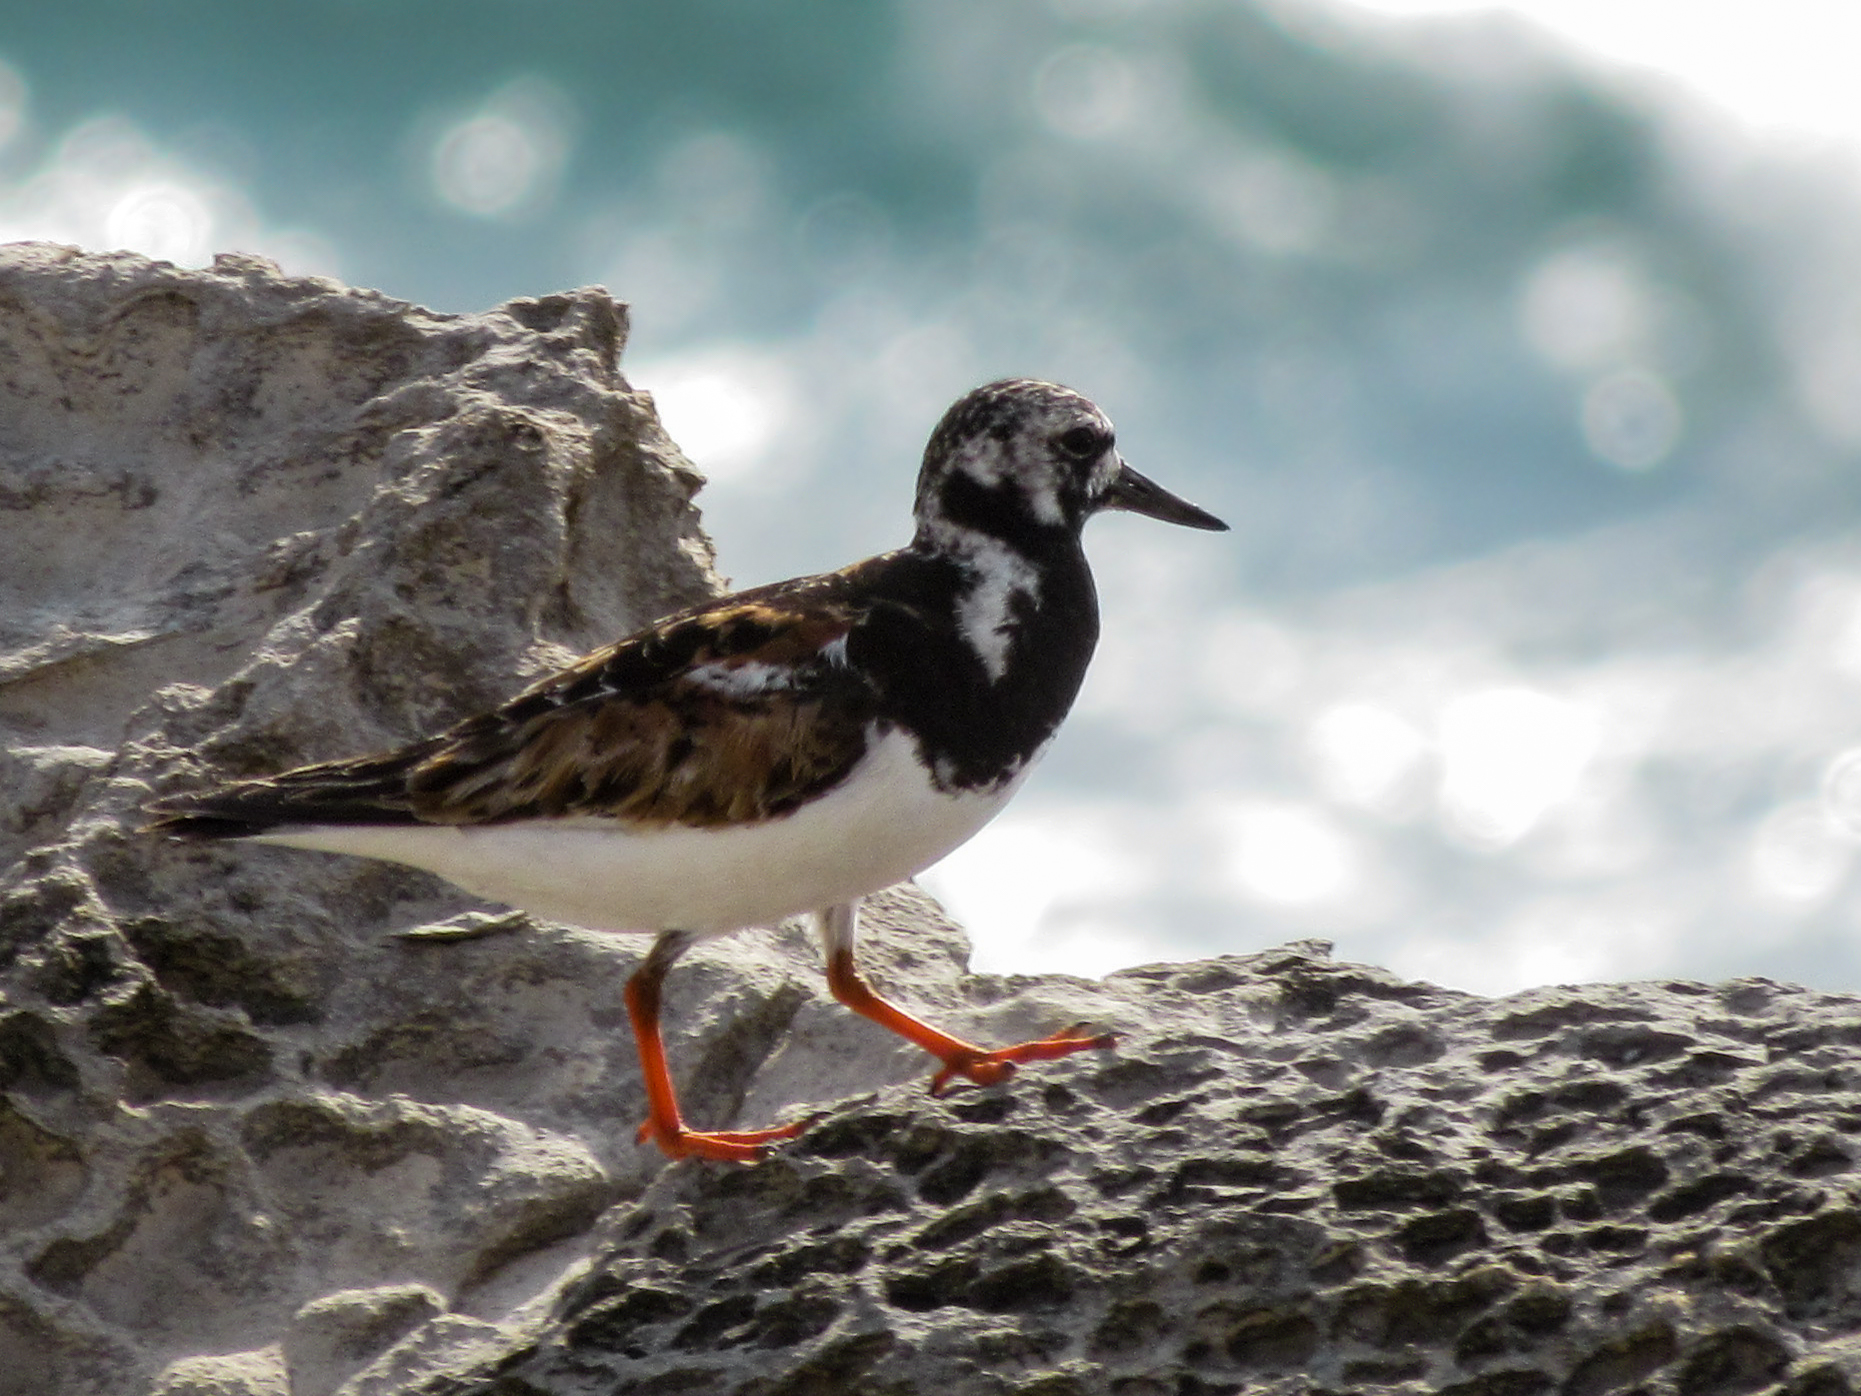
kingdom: Animalia
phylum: Chordata
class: Aves
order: Charadriiformes
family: Scolopacidae
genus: Arenaria
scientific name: Arenaria interpres
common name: Ruddy turnstone
